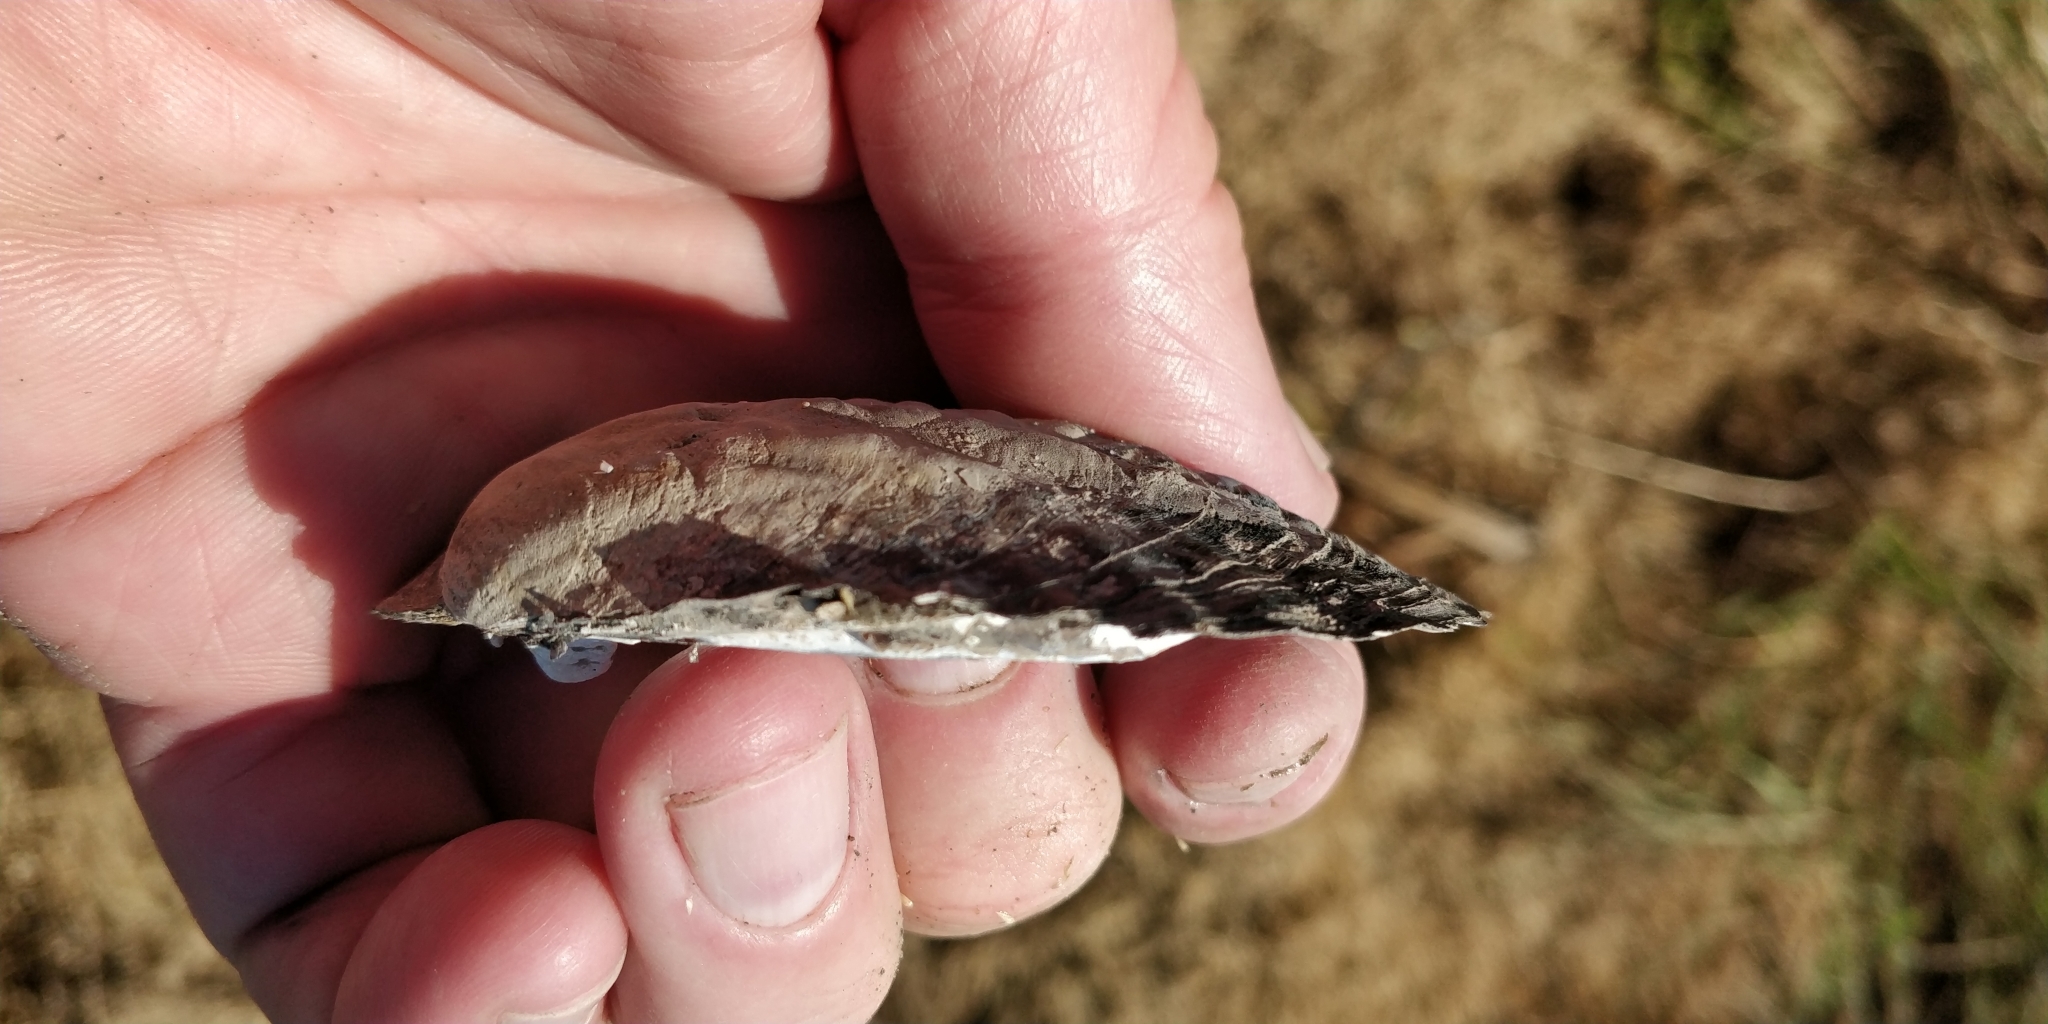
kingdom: Animalia
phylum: Mollusca
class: Bivalvia
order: Unionida
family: Unionidae
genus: Amblema
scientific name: Amblema plicata
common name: Threeridge
